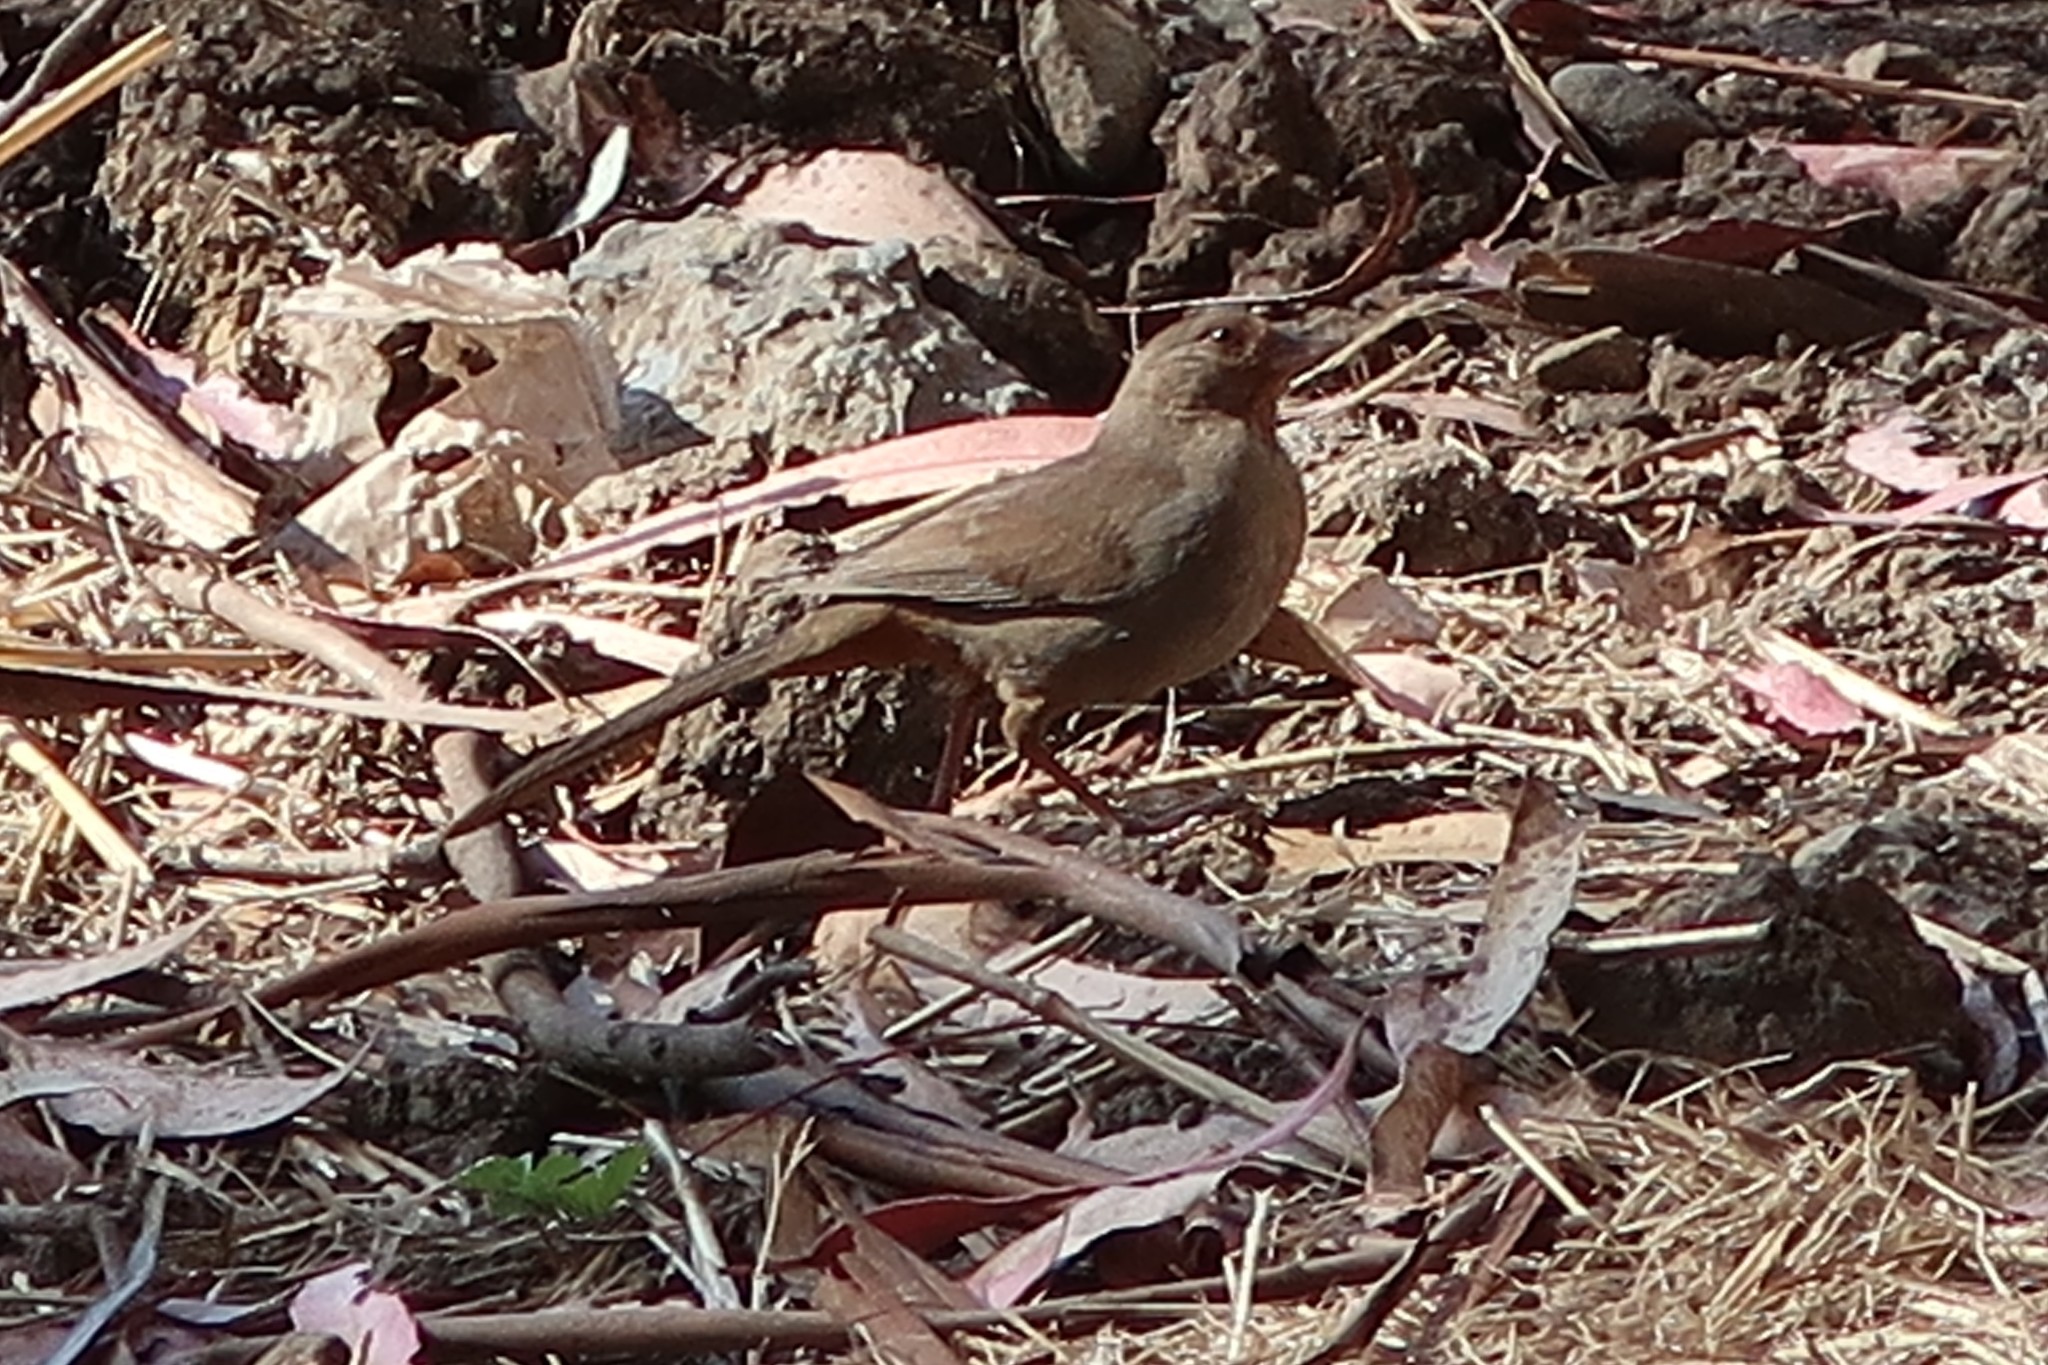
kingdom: Animalia
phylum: Chordata
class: Aves
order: Passeriformes
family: Passerellidae
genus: Melozone
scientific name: Melozone crissalis
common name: California towhee
